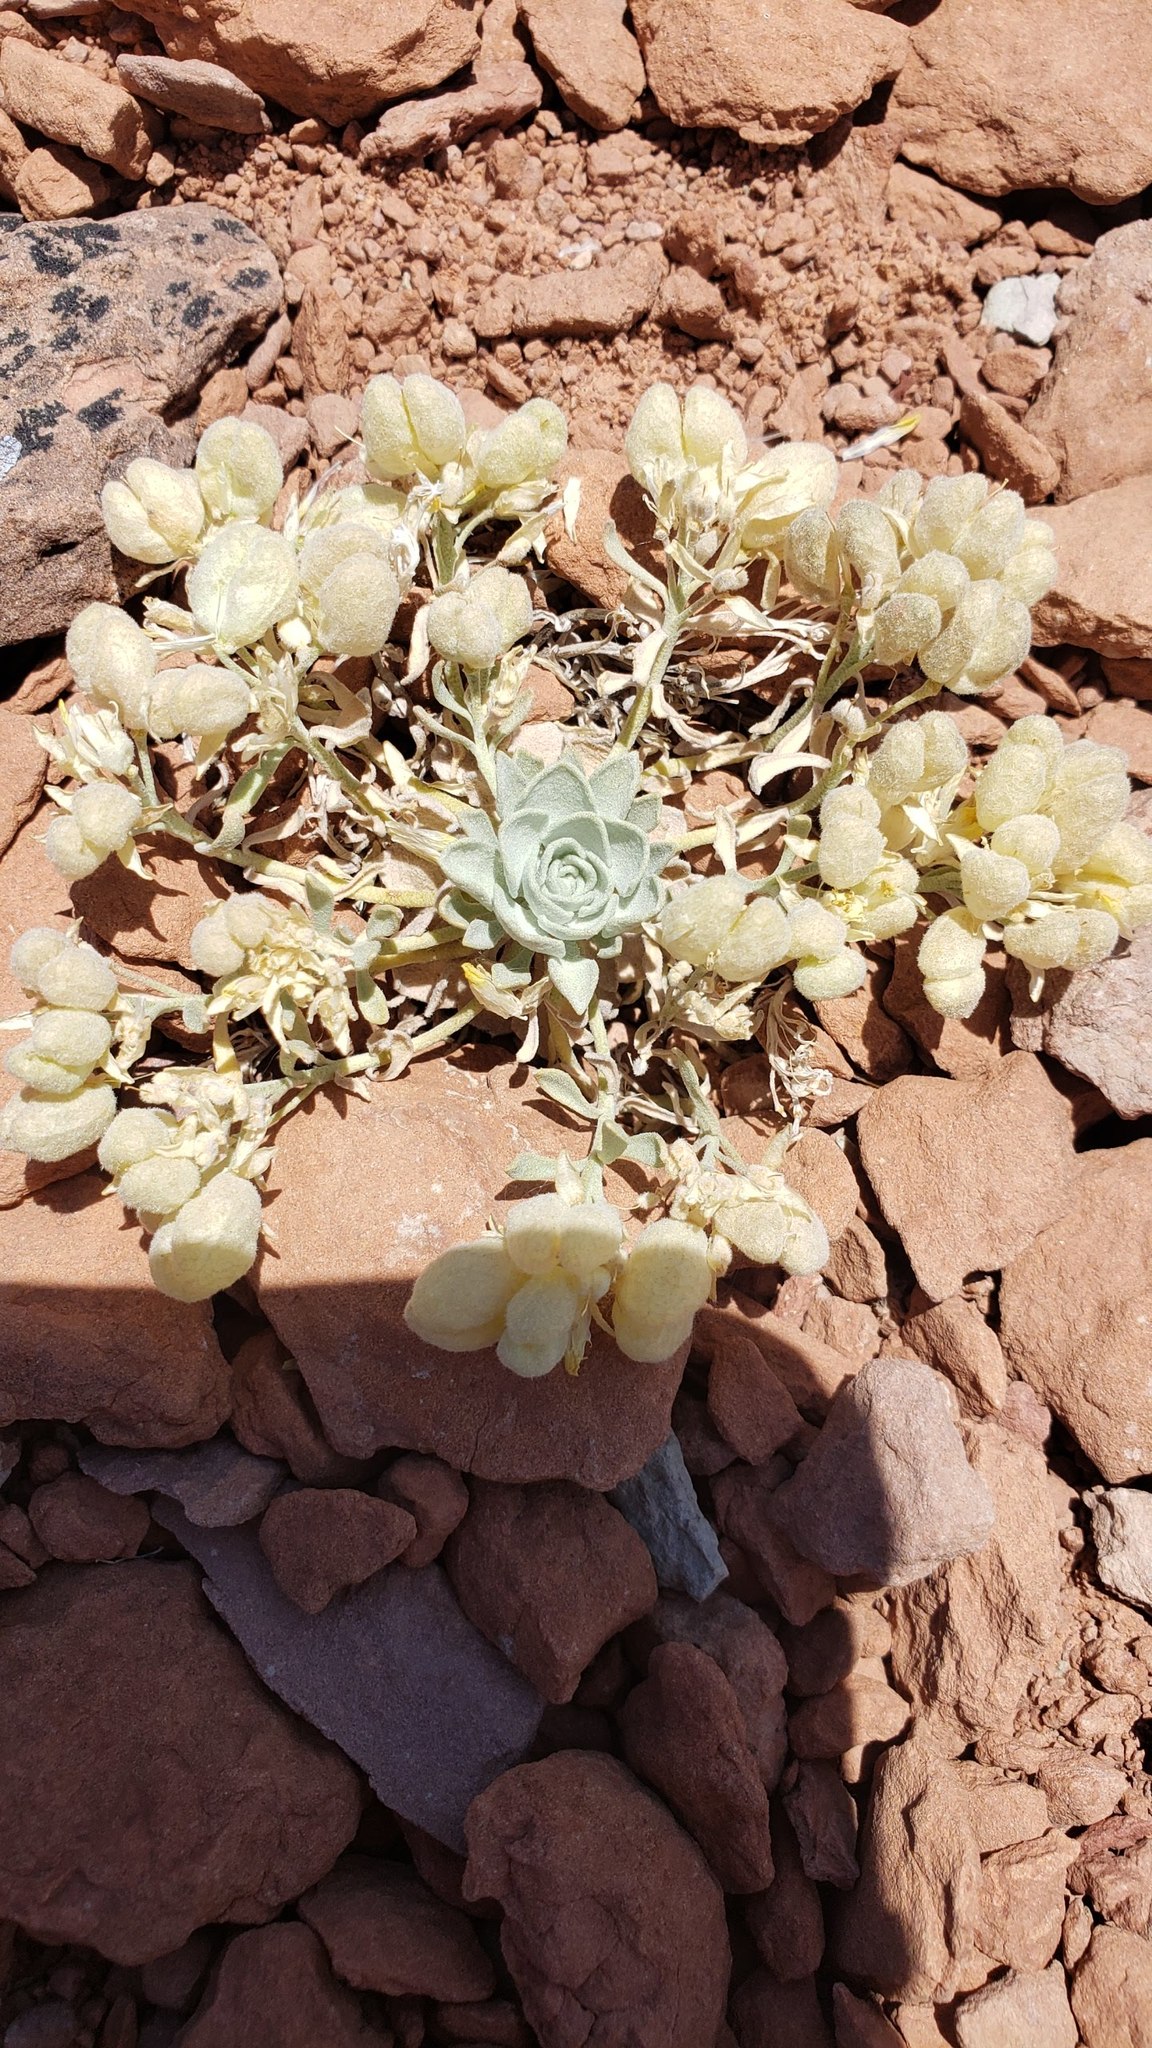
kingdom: Plantae
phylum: Tracheophyta
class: Magnoliopsida
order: Brassicales
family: Brassicaceae
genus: Physaria
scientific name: Physaria saximontana
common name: Fremont county twinpod
